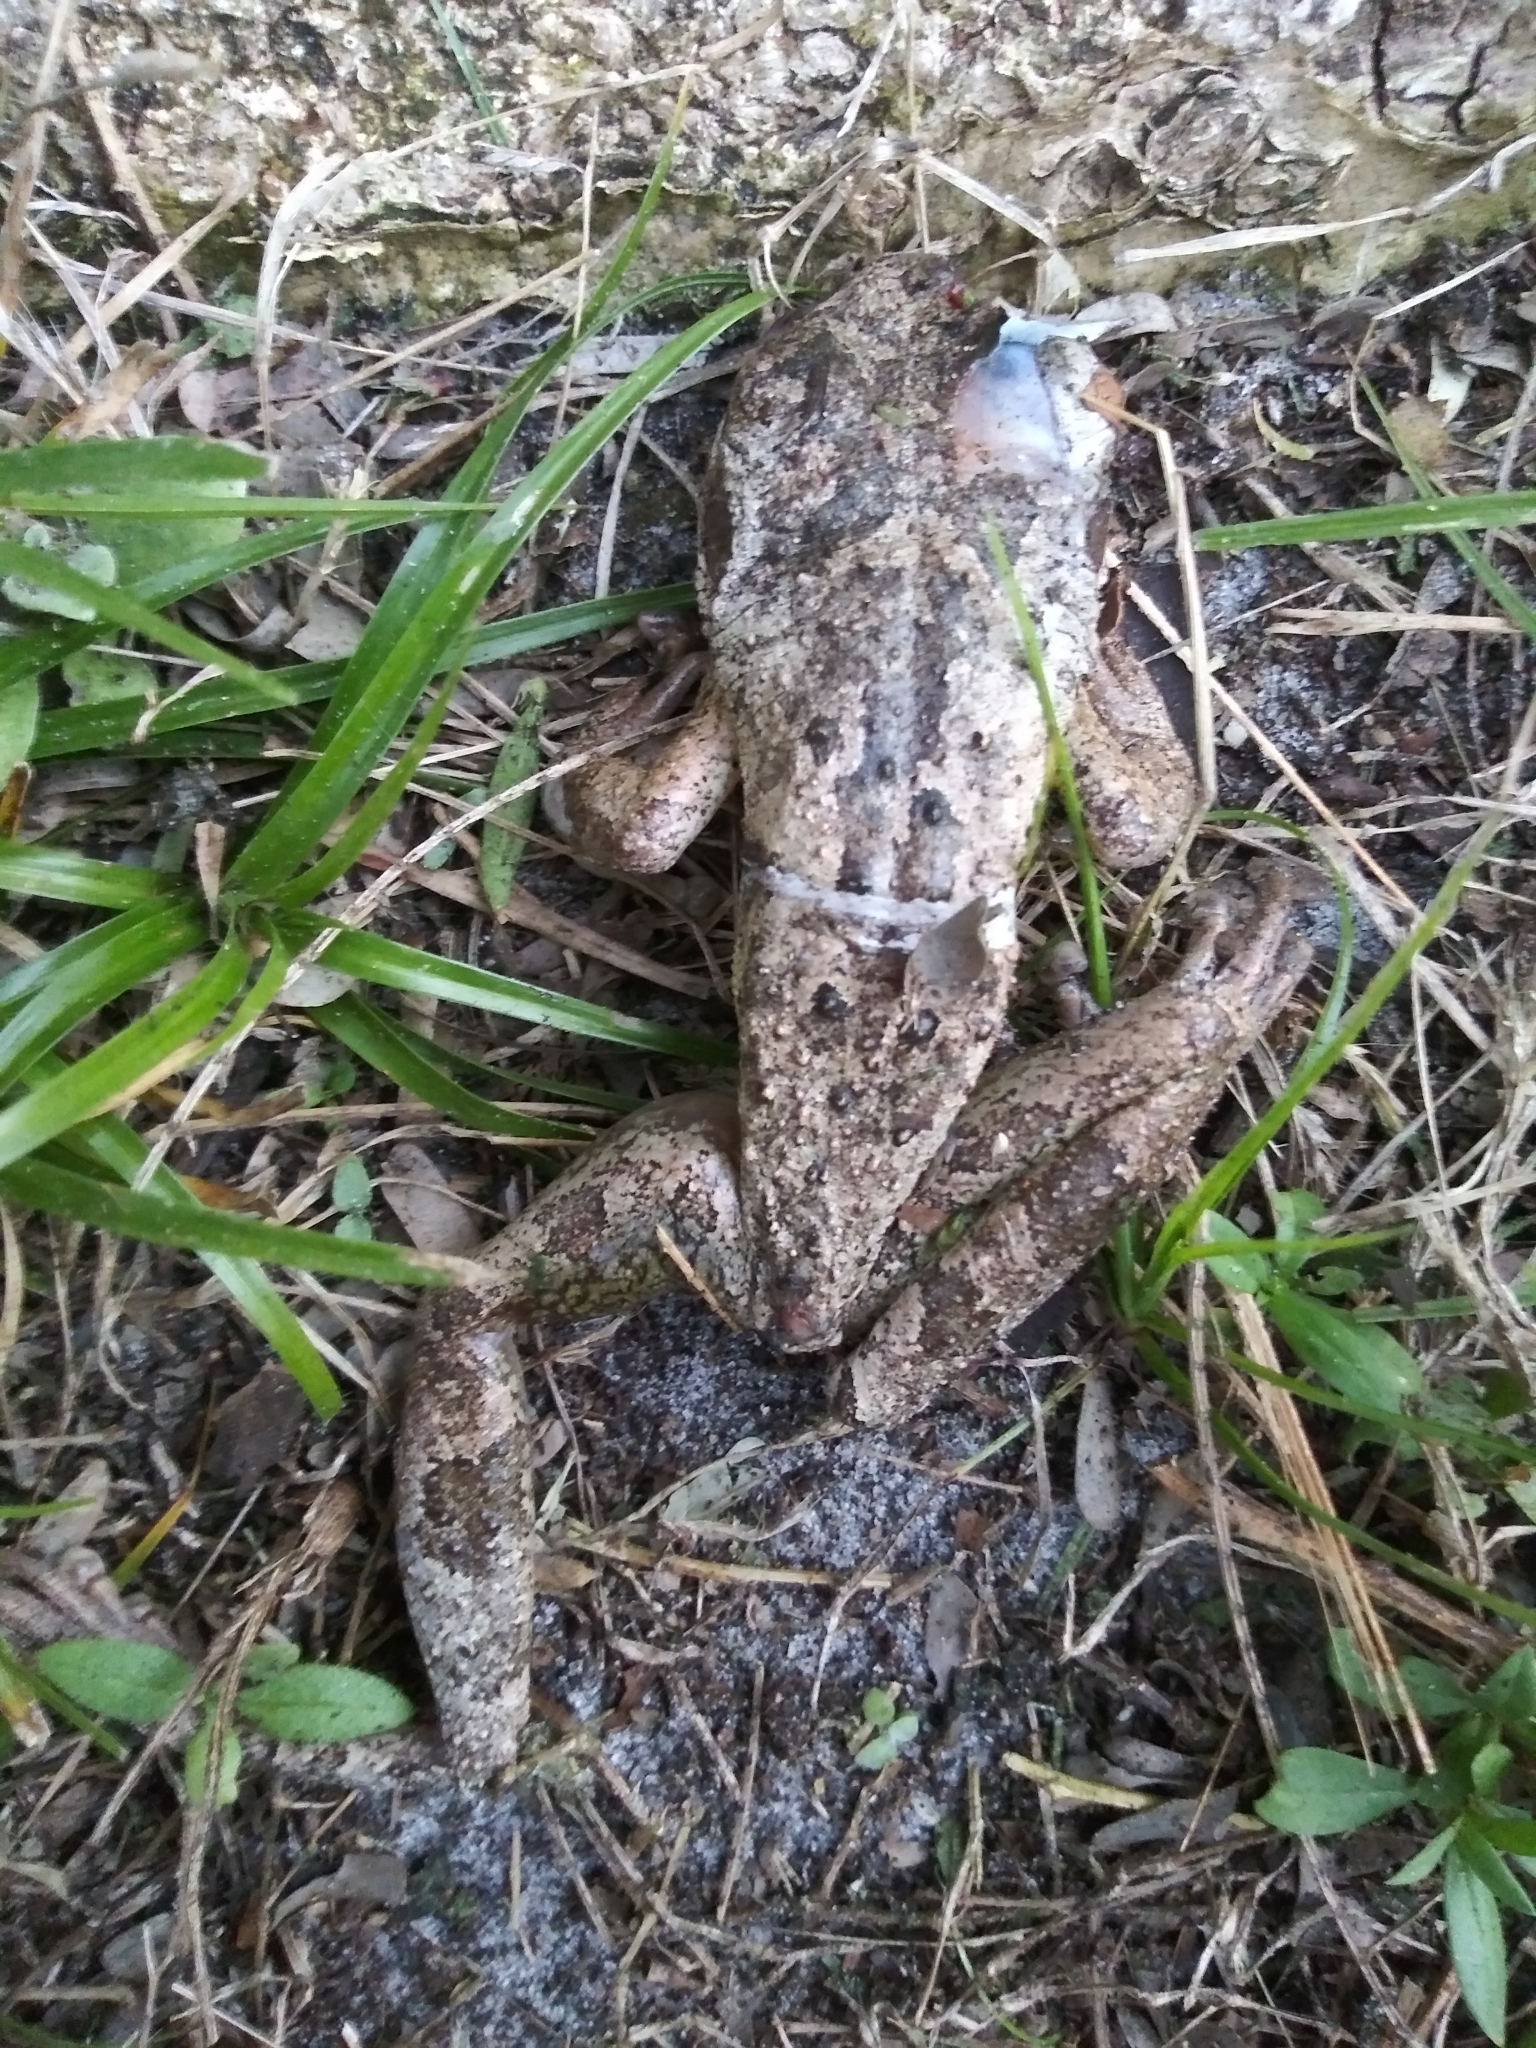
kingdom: Animalia
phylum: Chordata
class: Amphibia
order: Anura
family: Hylidae
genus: Osteopilus
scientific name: Osteopilus septentrionalis
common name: Cuban treefrog
